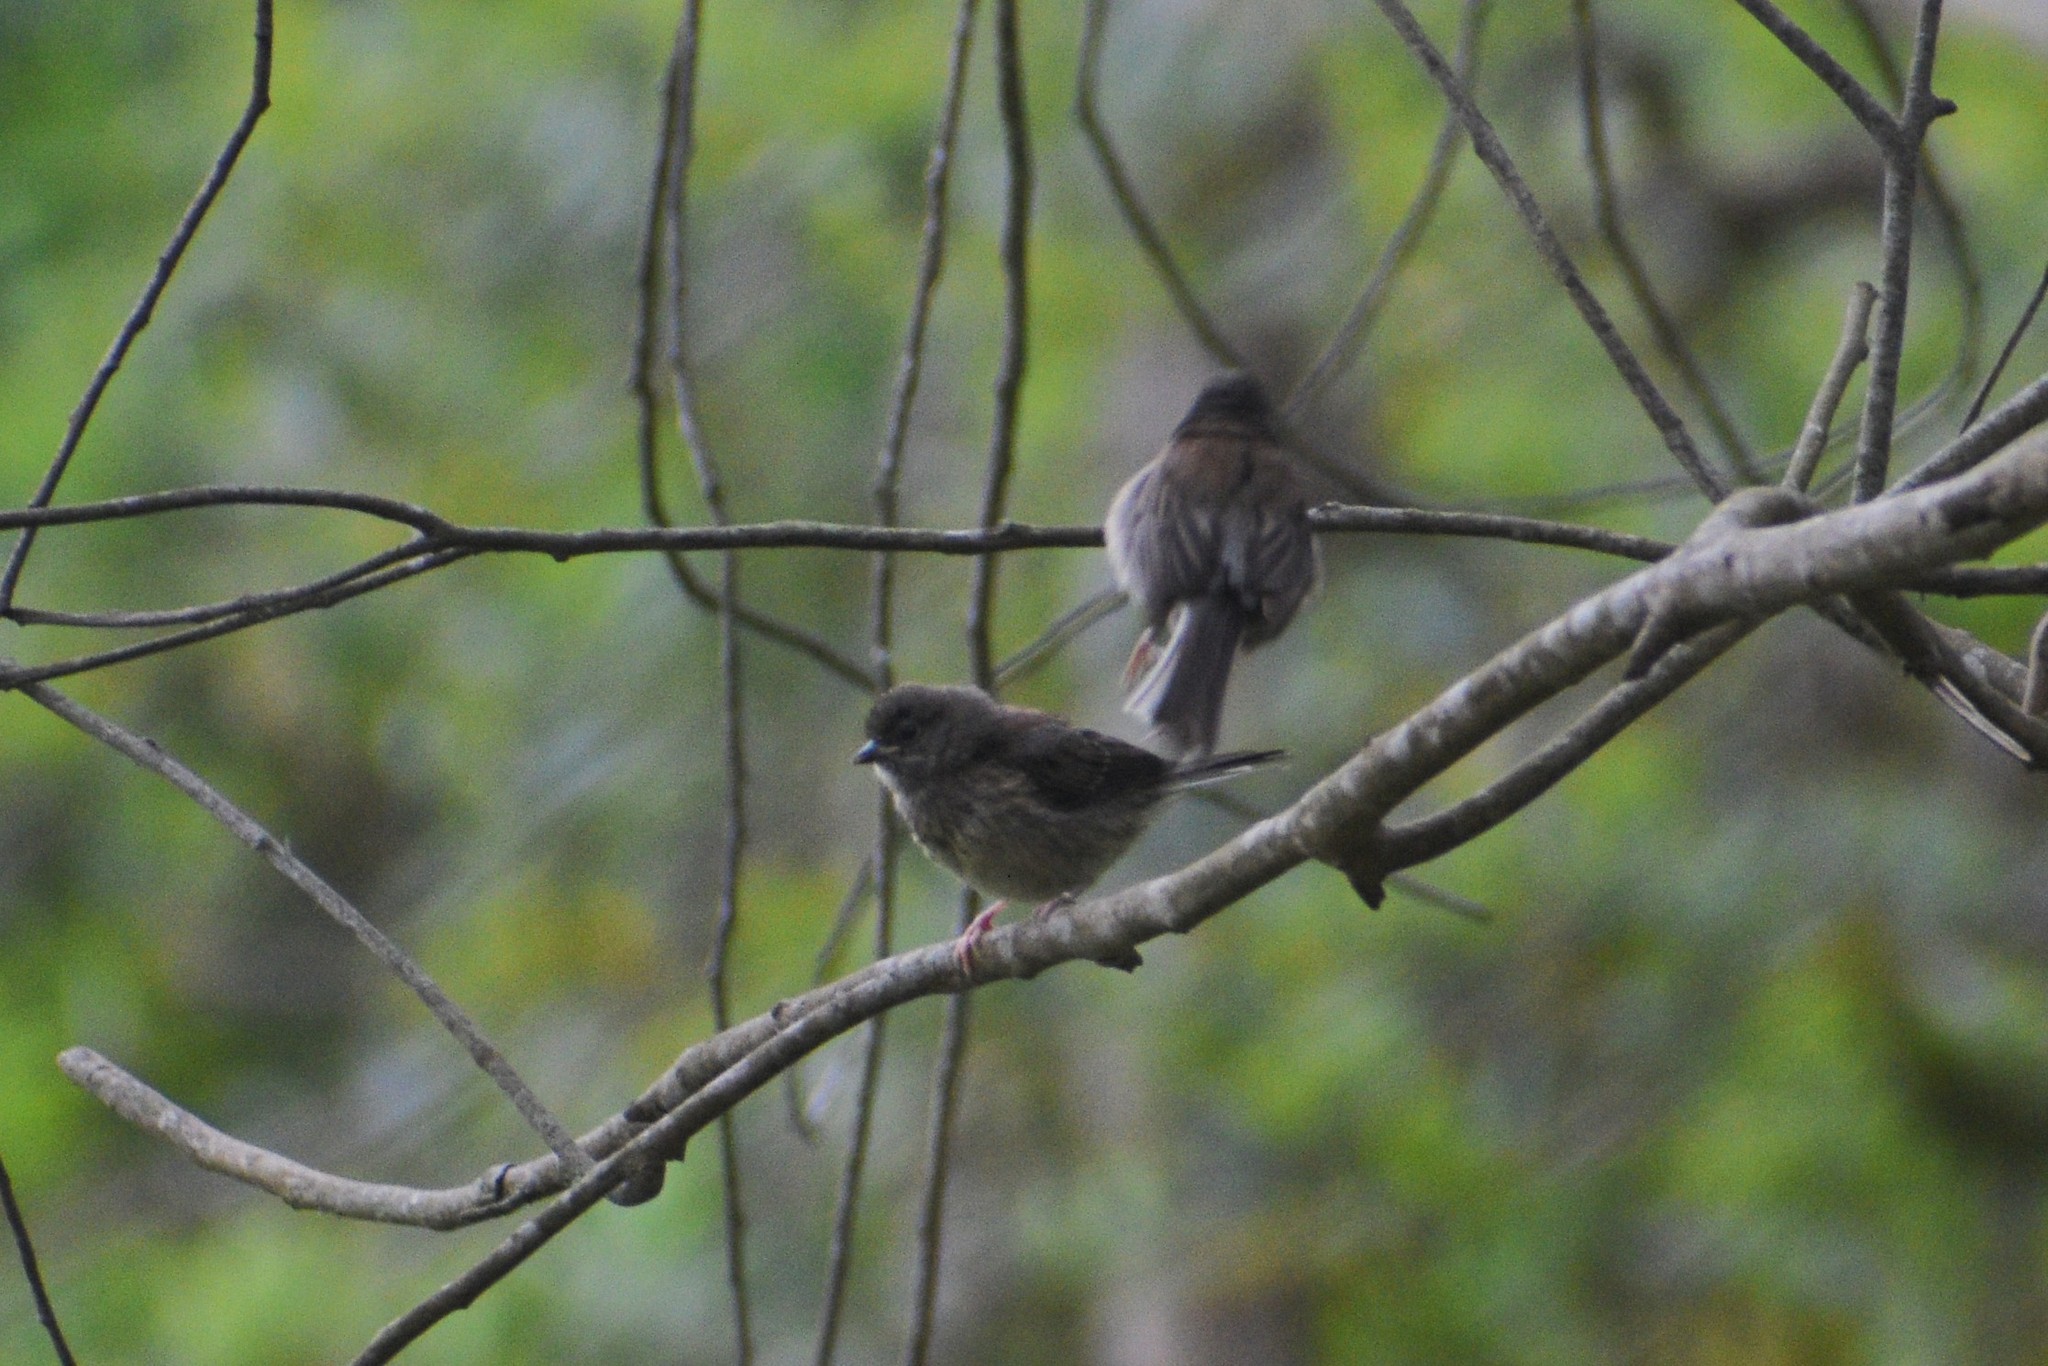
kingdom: Animalia
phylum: Chordata
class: Aves
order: Passeriformes
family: Passerellidae
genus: Junco
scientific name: Junco hyemalis
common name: Dark-eyed junco
